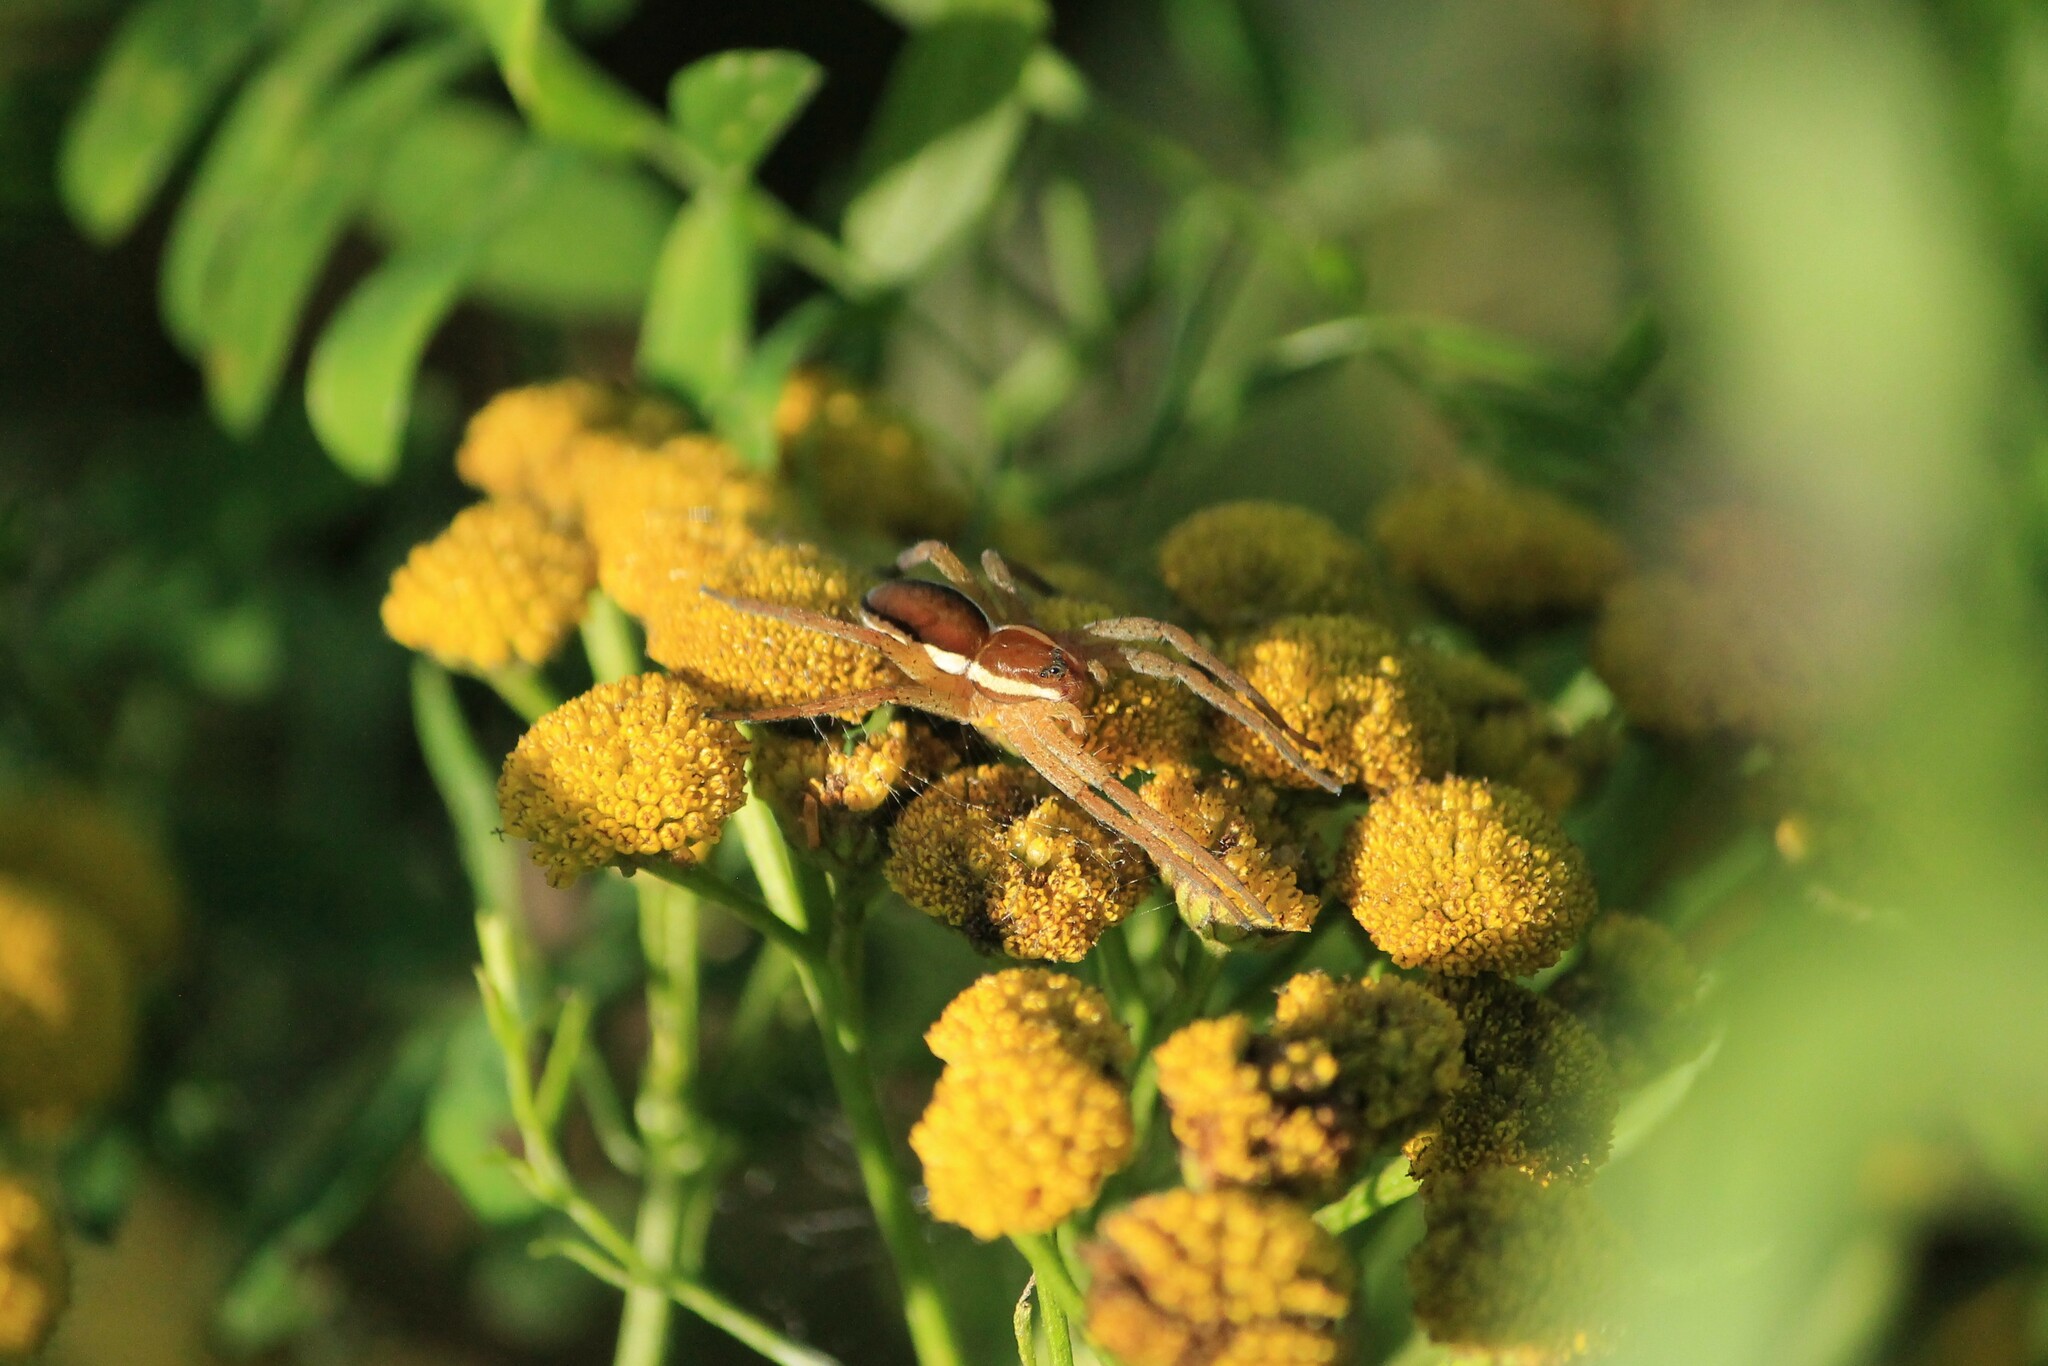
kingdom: Animalia
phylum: Arthropoda
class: Arachnida
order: Araneae
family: Pisauridae
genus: Dolomedes
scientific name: Dolomedes
